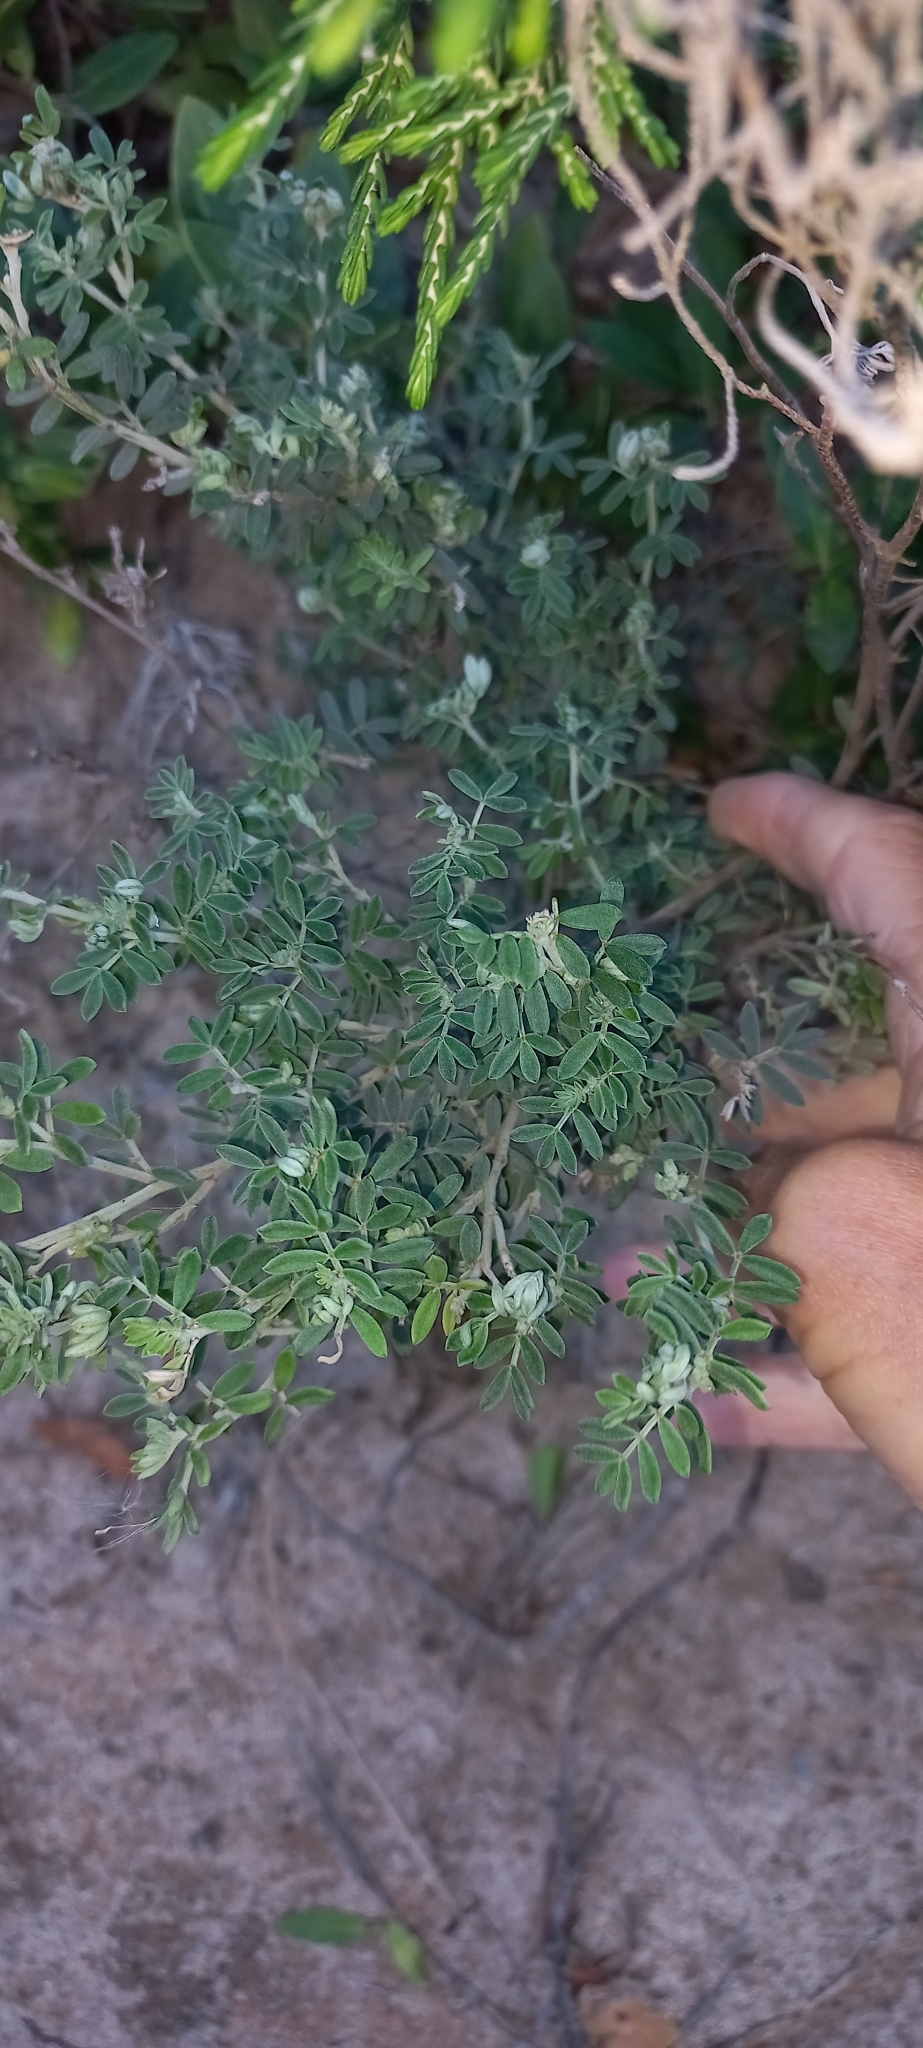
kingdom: Plantae
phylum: Tracheophyta
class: Magnoliopsida
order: Fabales
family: Fabaceae
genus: Indigofera
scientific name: Indigofera brachystachya
